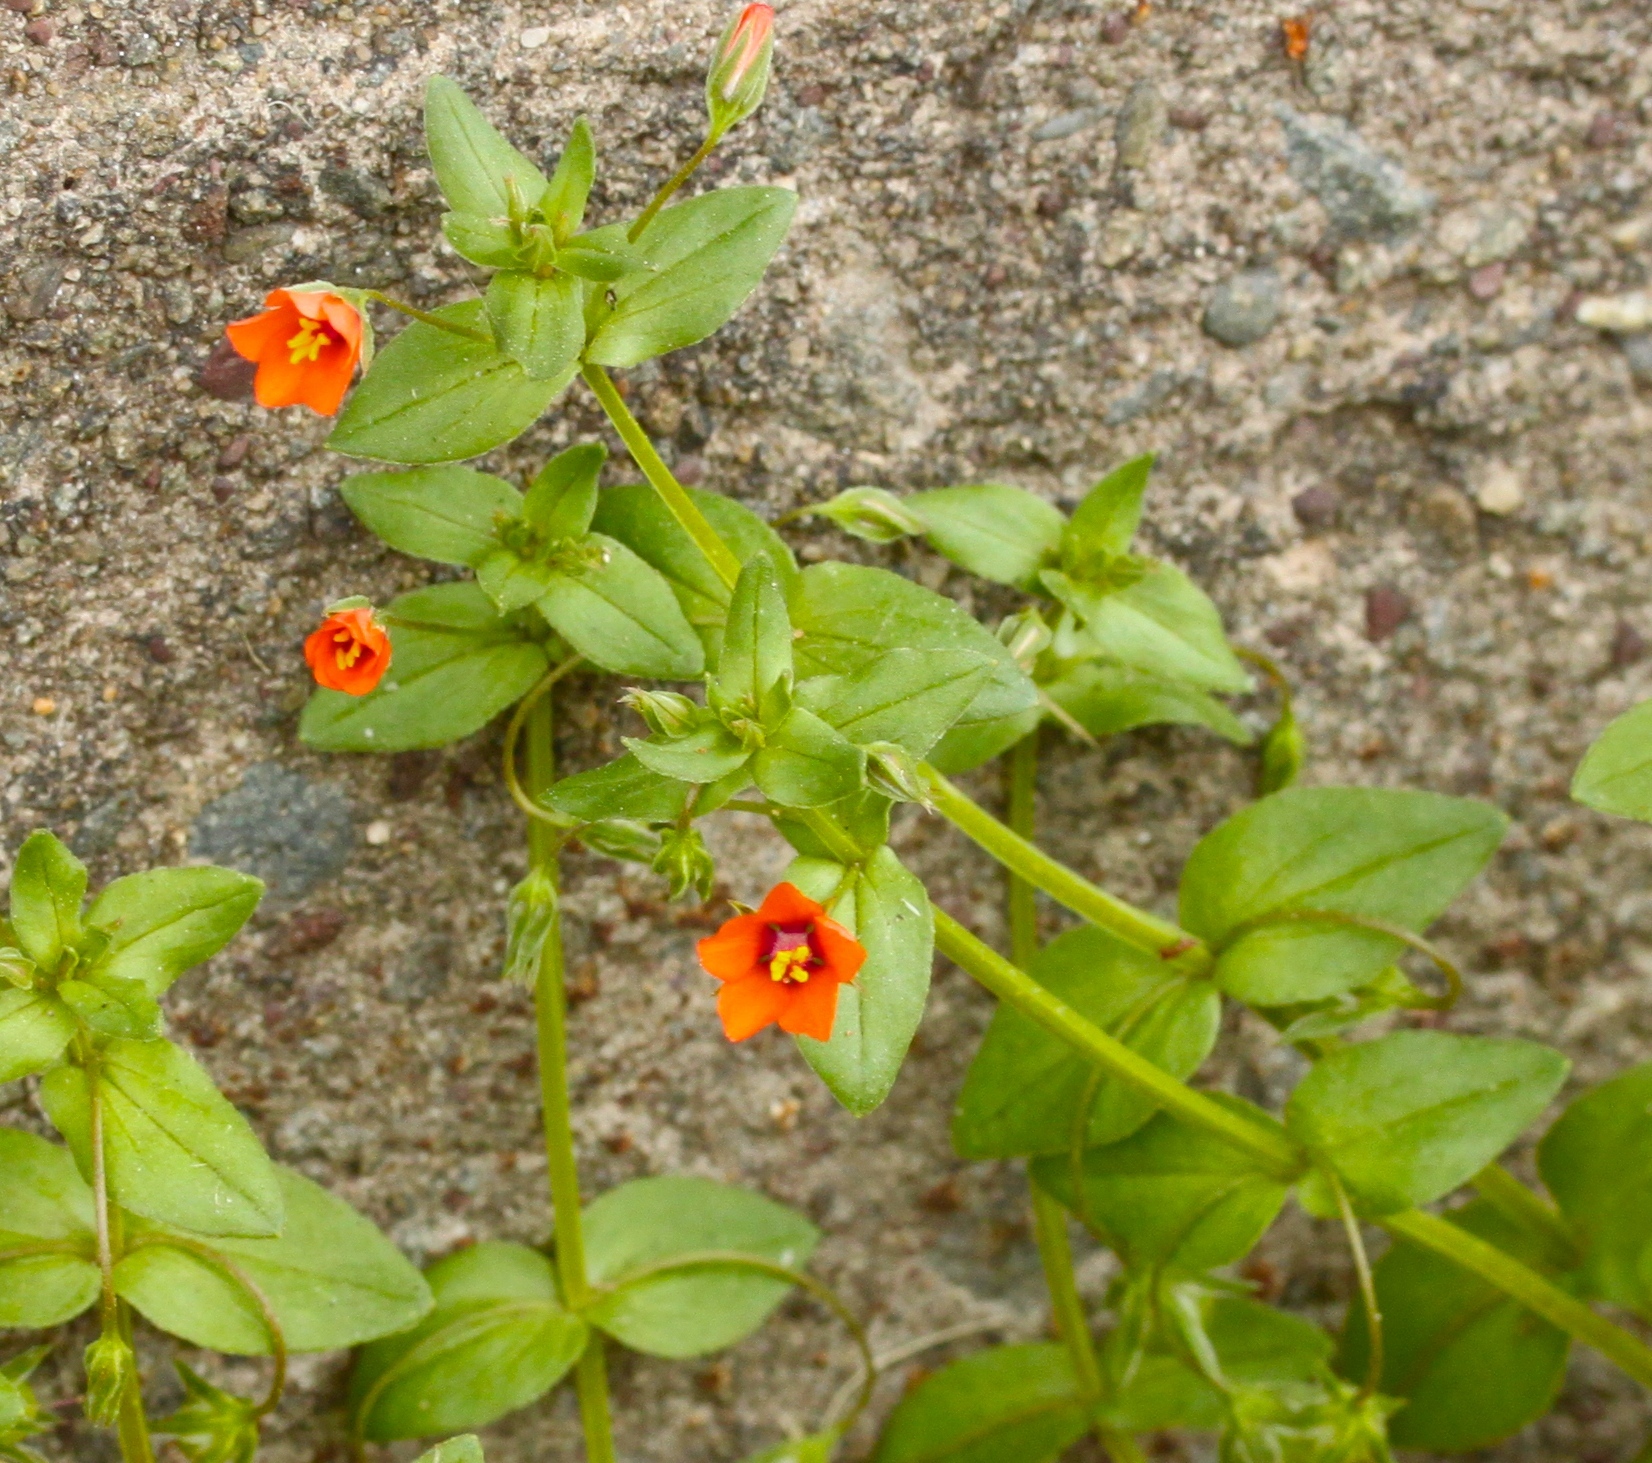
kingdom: Plantae
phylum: Tracheophyta
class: Magnoliopsida
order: Ericales
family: Primulaceae
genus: Lysimachia
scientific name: Lysimachia arvensis
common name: Scarlet pimpernel
